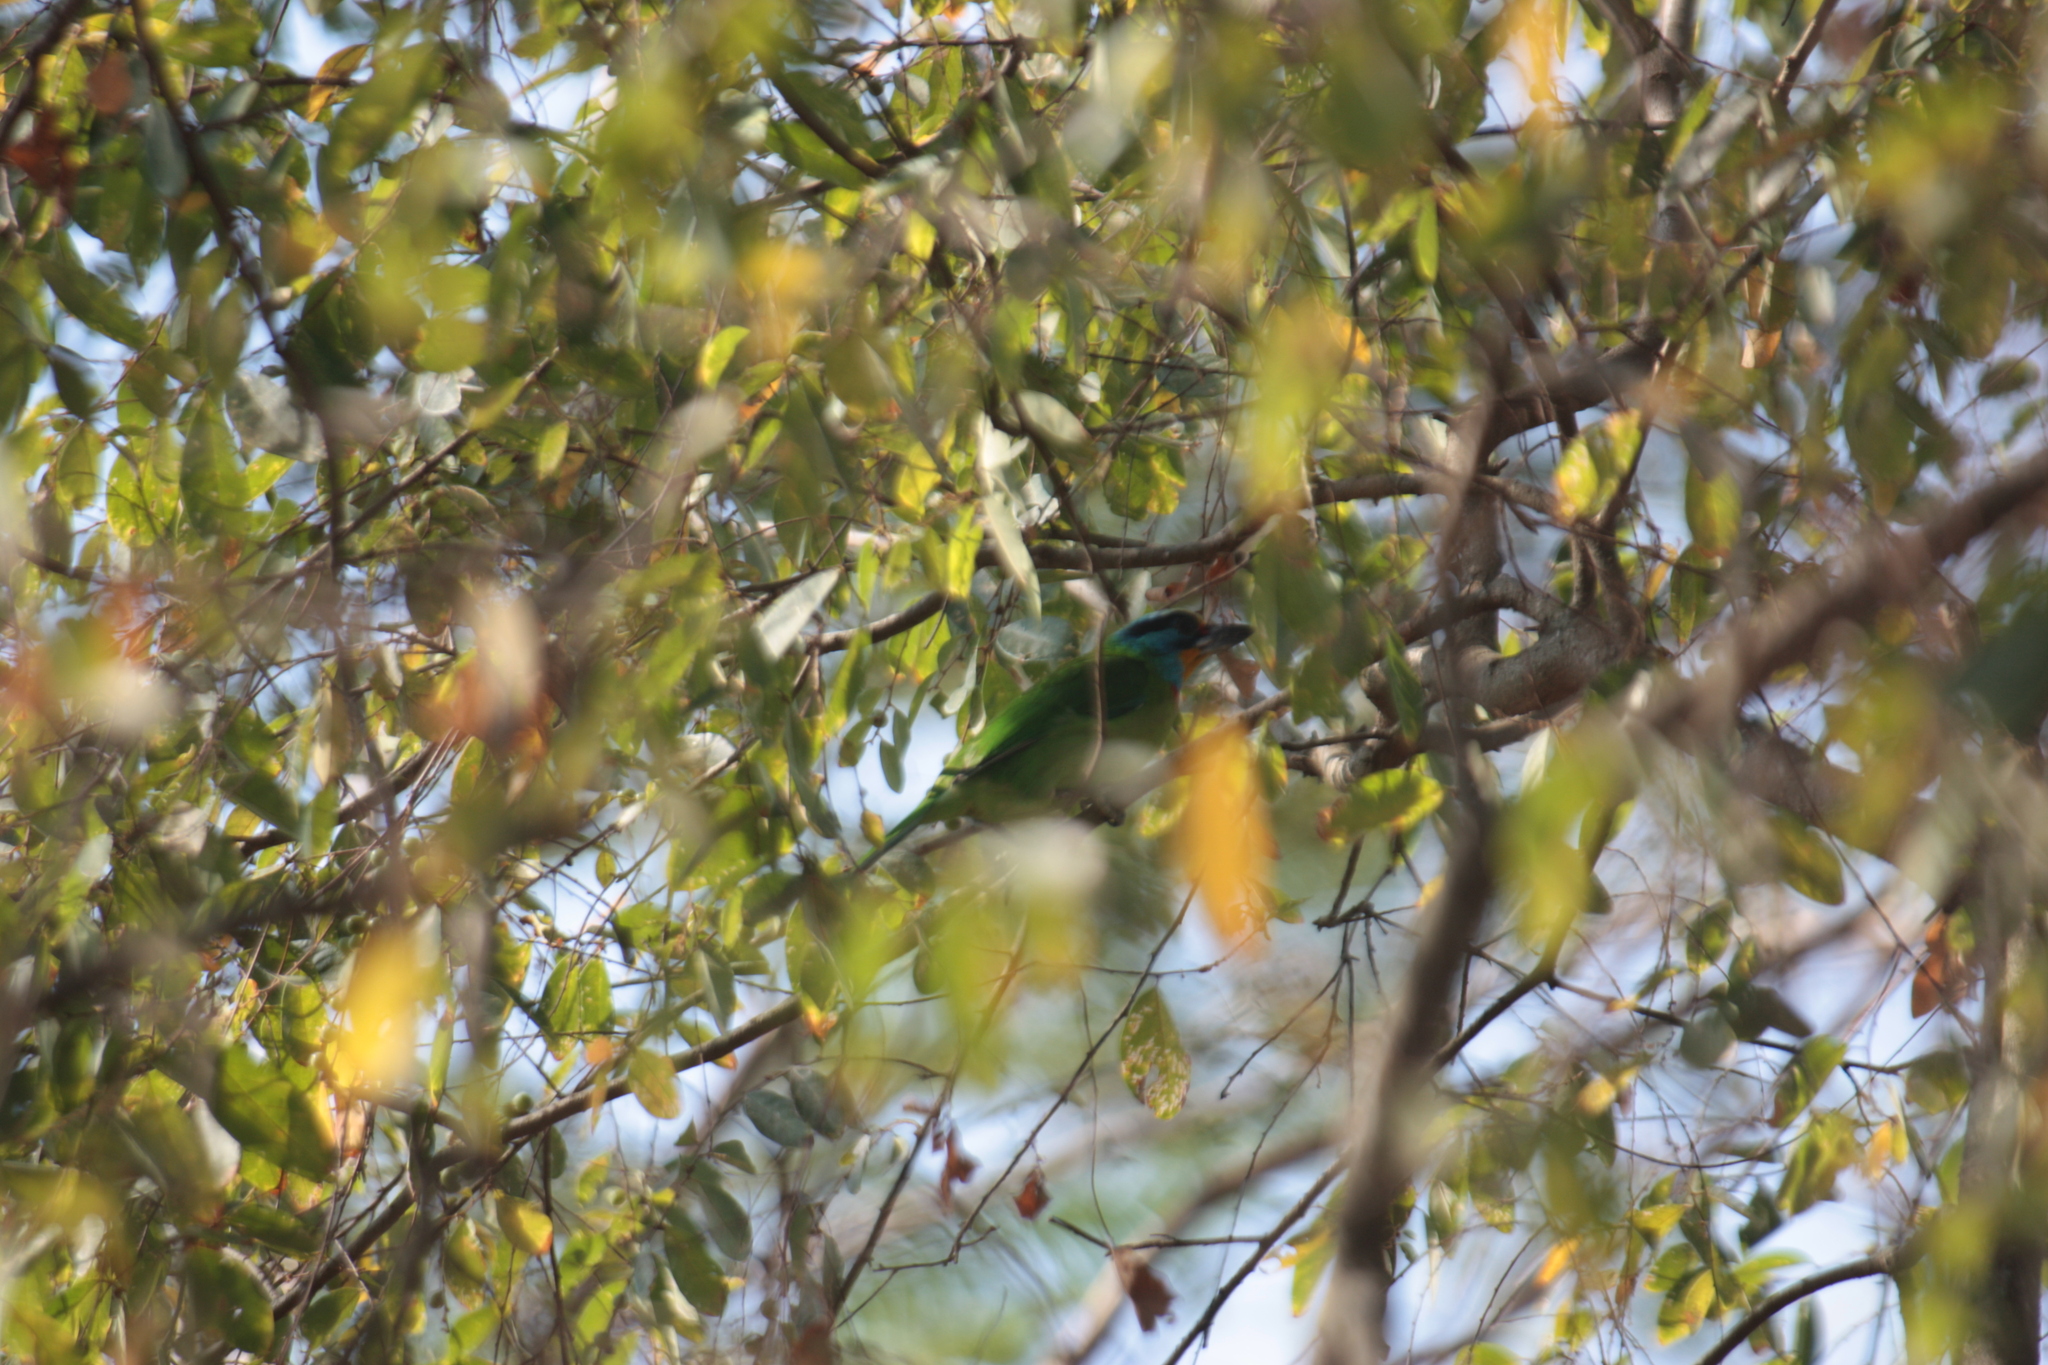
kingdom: Animalia
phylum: Chordata
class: Aves
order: Piciformes
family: Megalaimidae
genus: Psilopogon
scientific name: Psilopogon nuchalis
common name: Taiwan barbet
